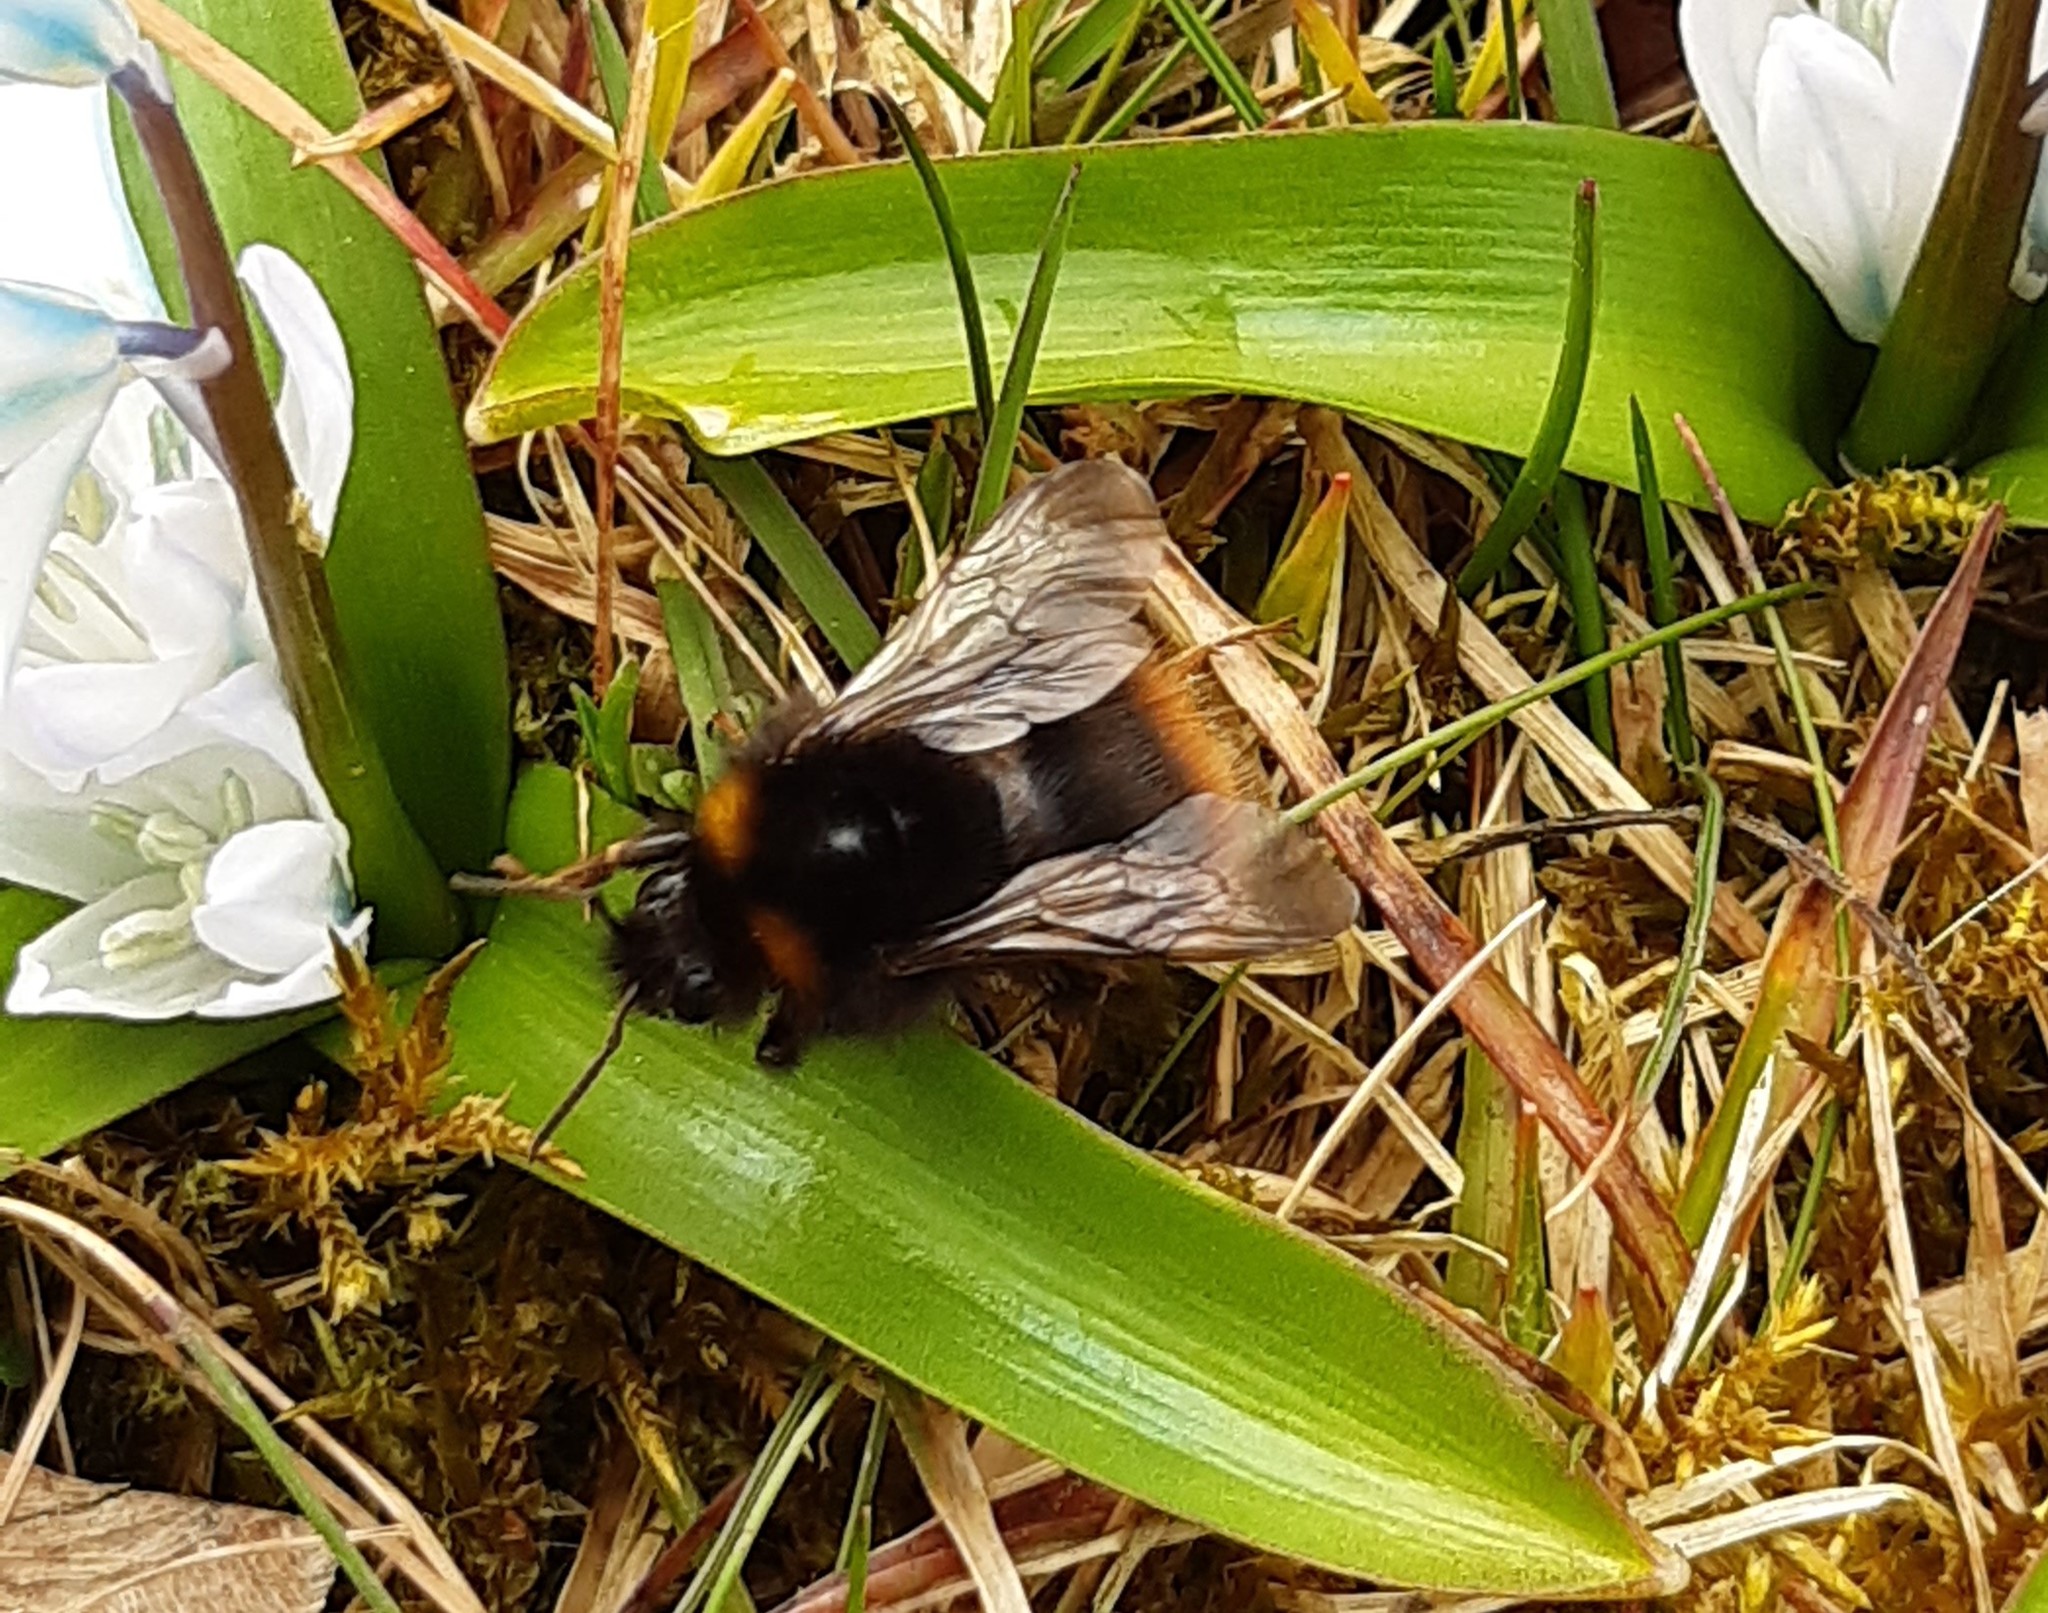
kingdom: Animalia
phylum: Arthropoda
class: Insecta
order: Hymenoptera
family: Apidae
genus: Bombus
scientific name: Bombus pratorum
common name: Early humble-bee
